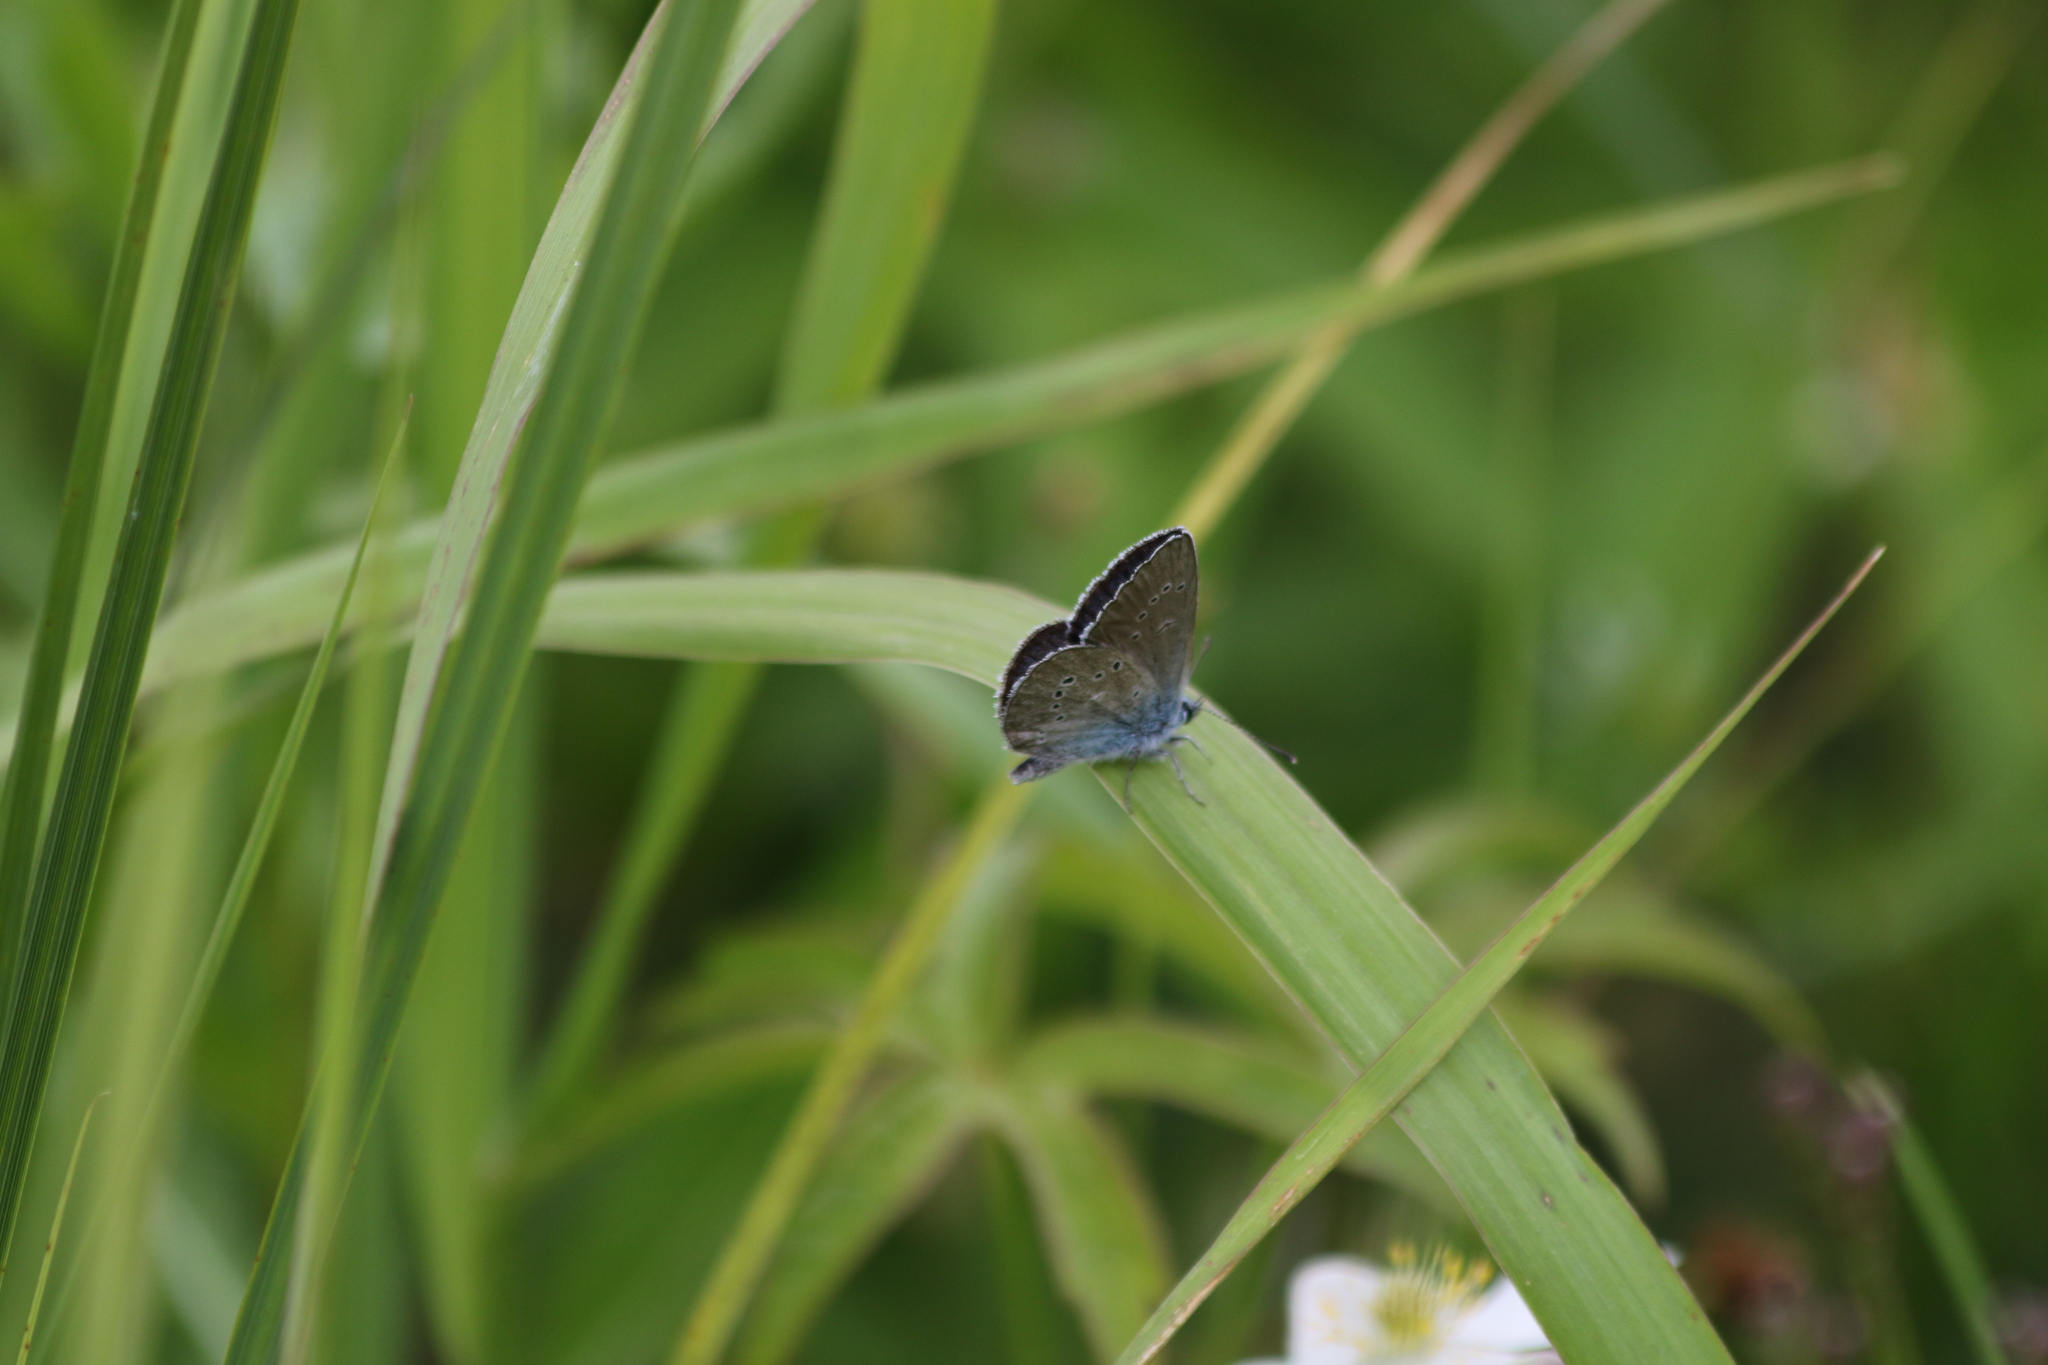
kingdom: Animalia
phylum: Arthropoda
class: Insecta
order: Lepidoptera
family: Lycaenidae
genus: Cyaniris
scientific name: Cyaniris semiargus
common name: Mazarine blue
